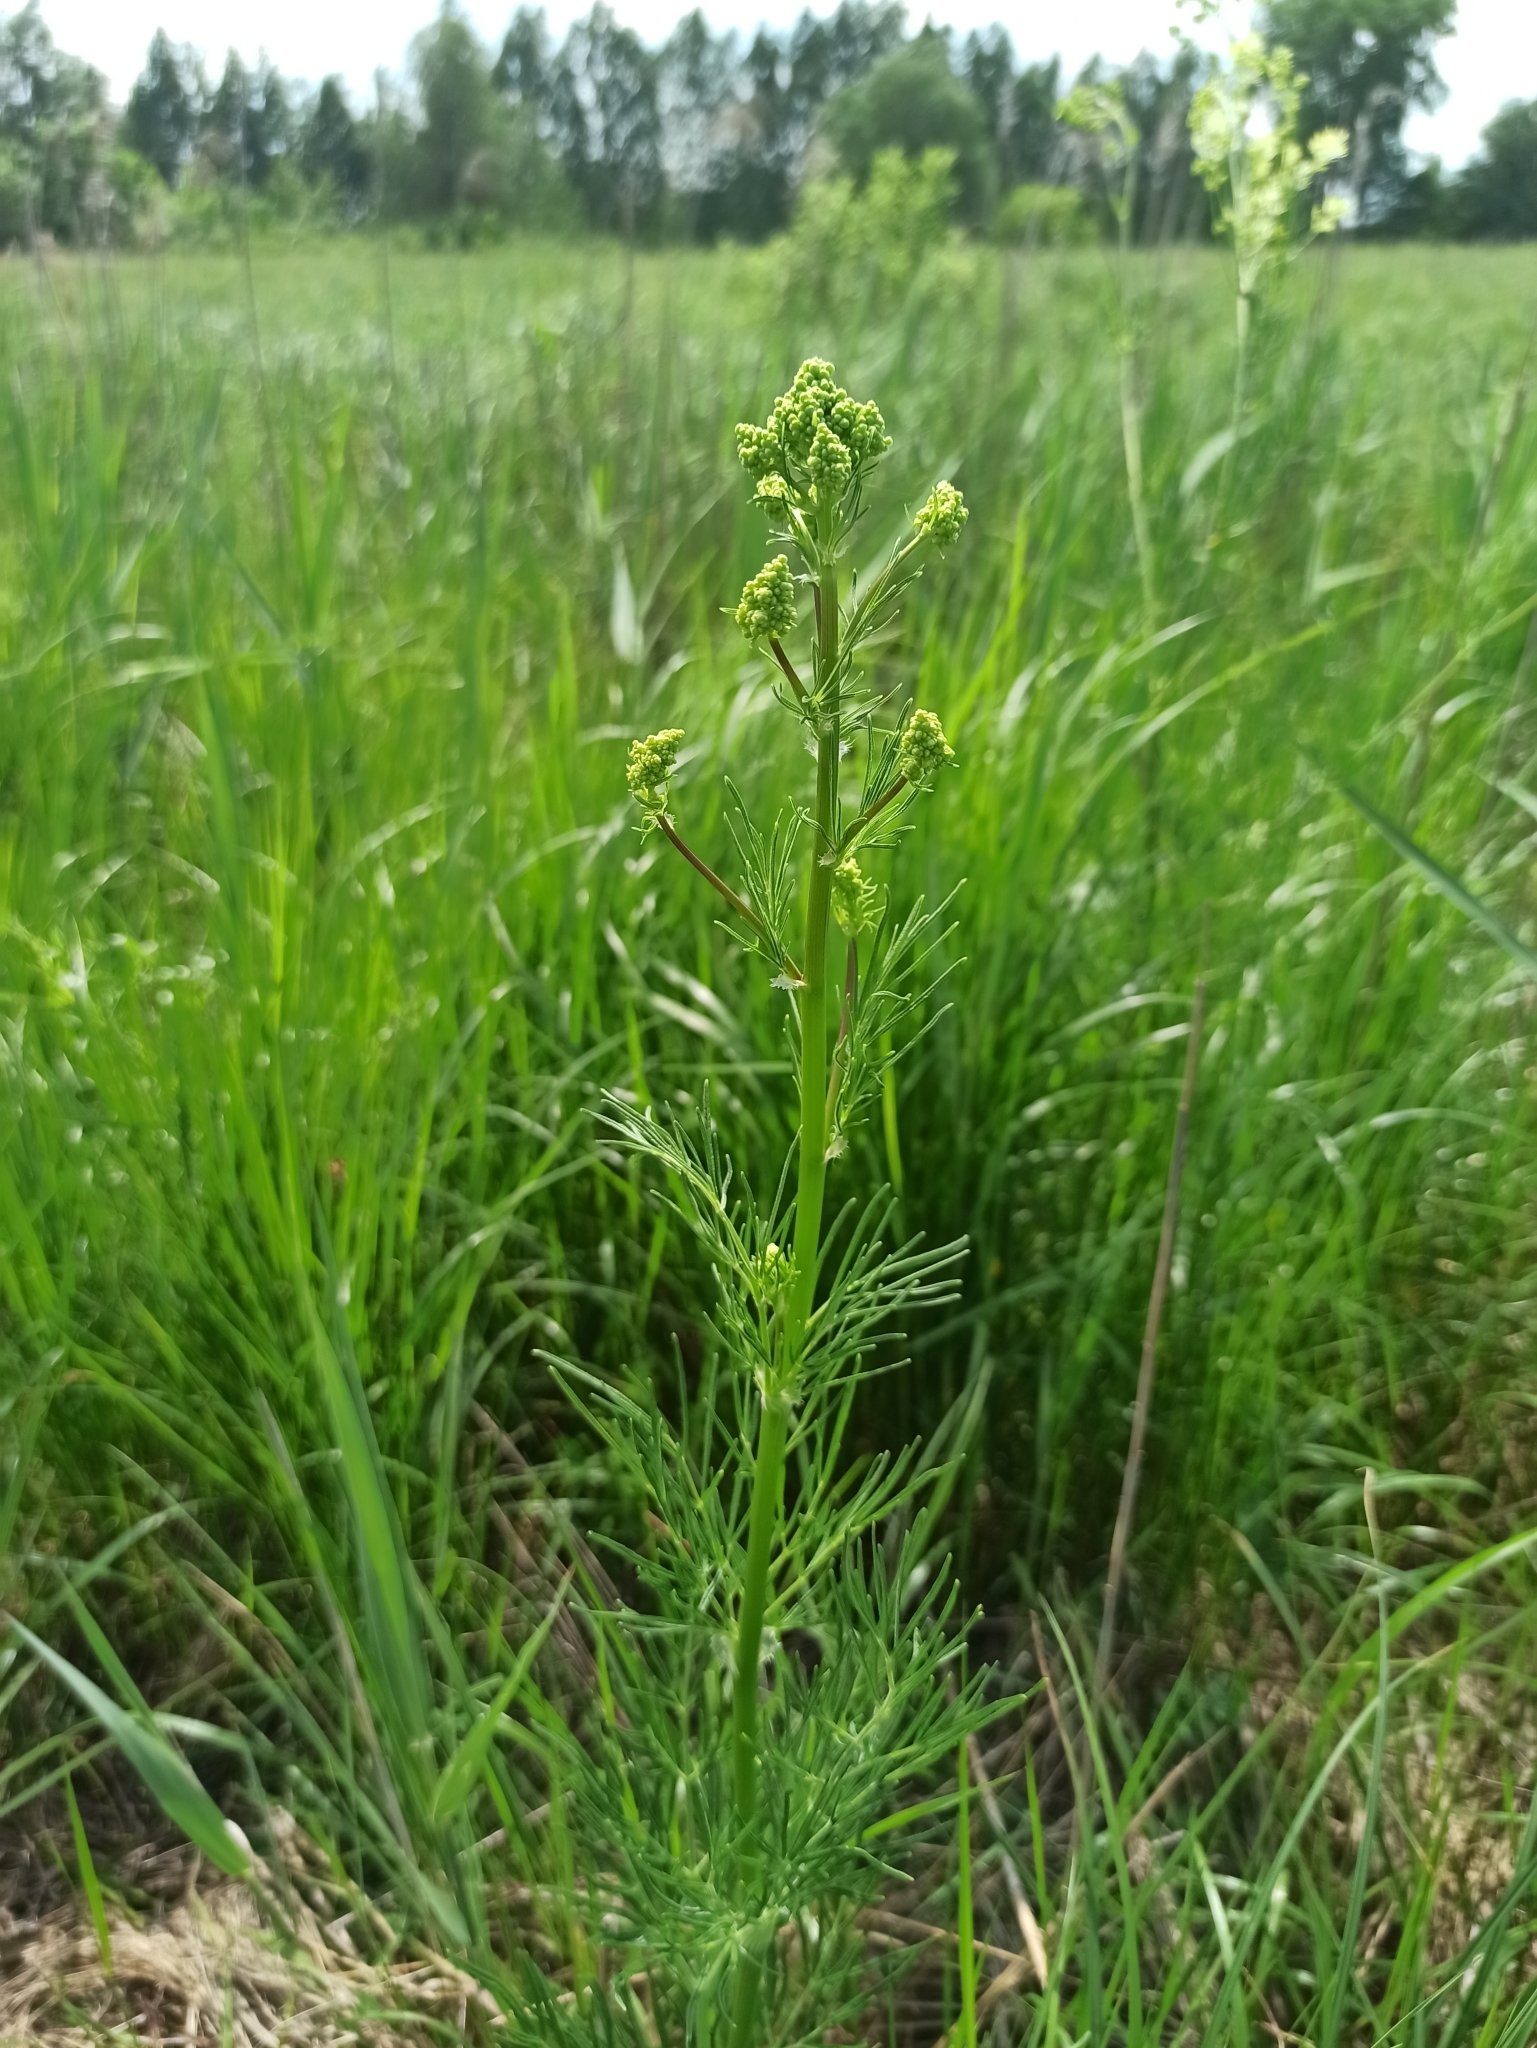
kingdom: Plantae
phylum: Tracheophyta
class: Magnoliopsida
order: Ranunculales
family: Ranunculaceae
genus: Thalictrum
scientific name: Thalictrum lucidum
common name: Shining meadow-rue
